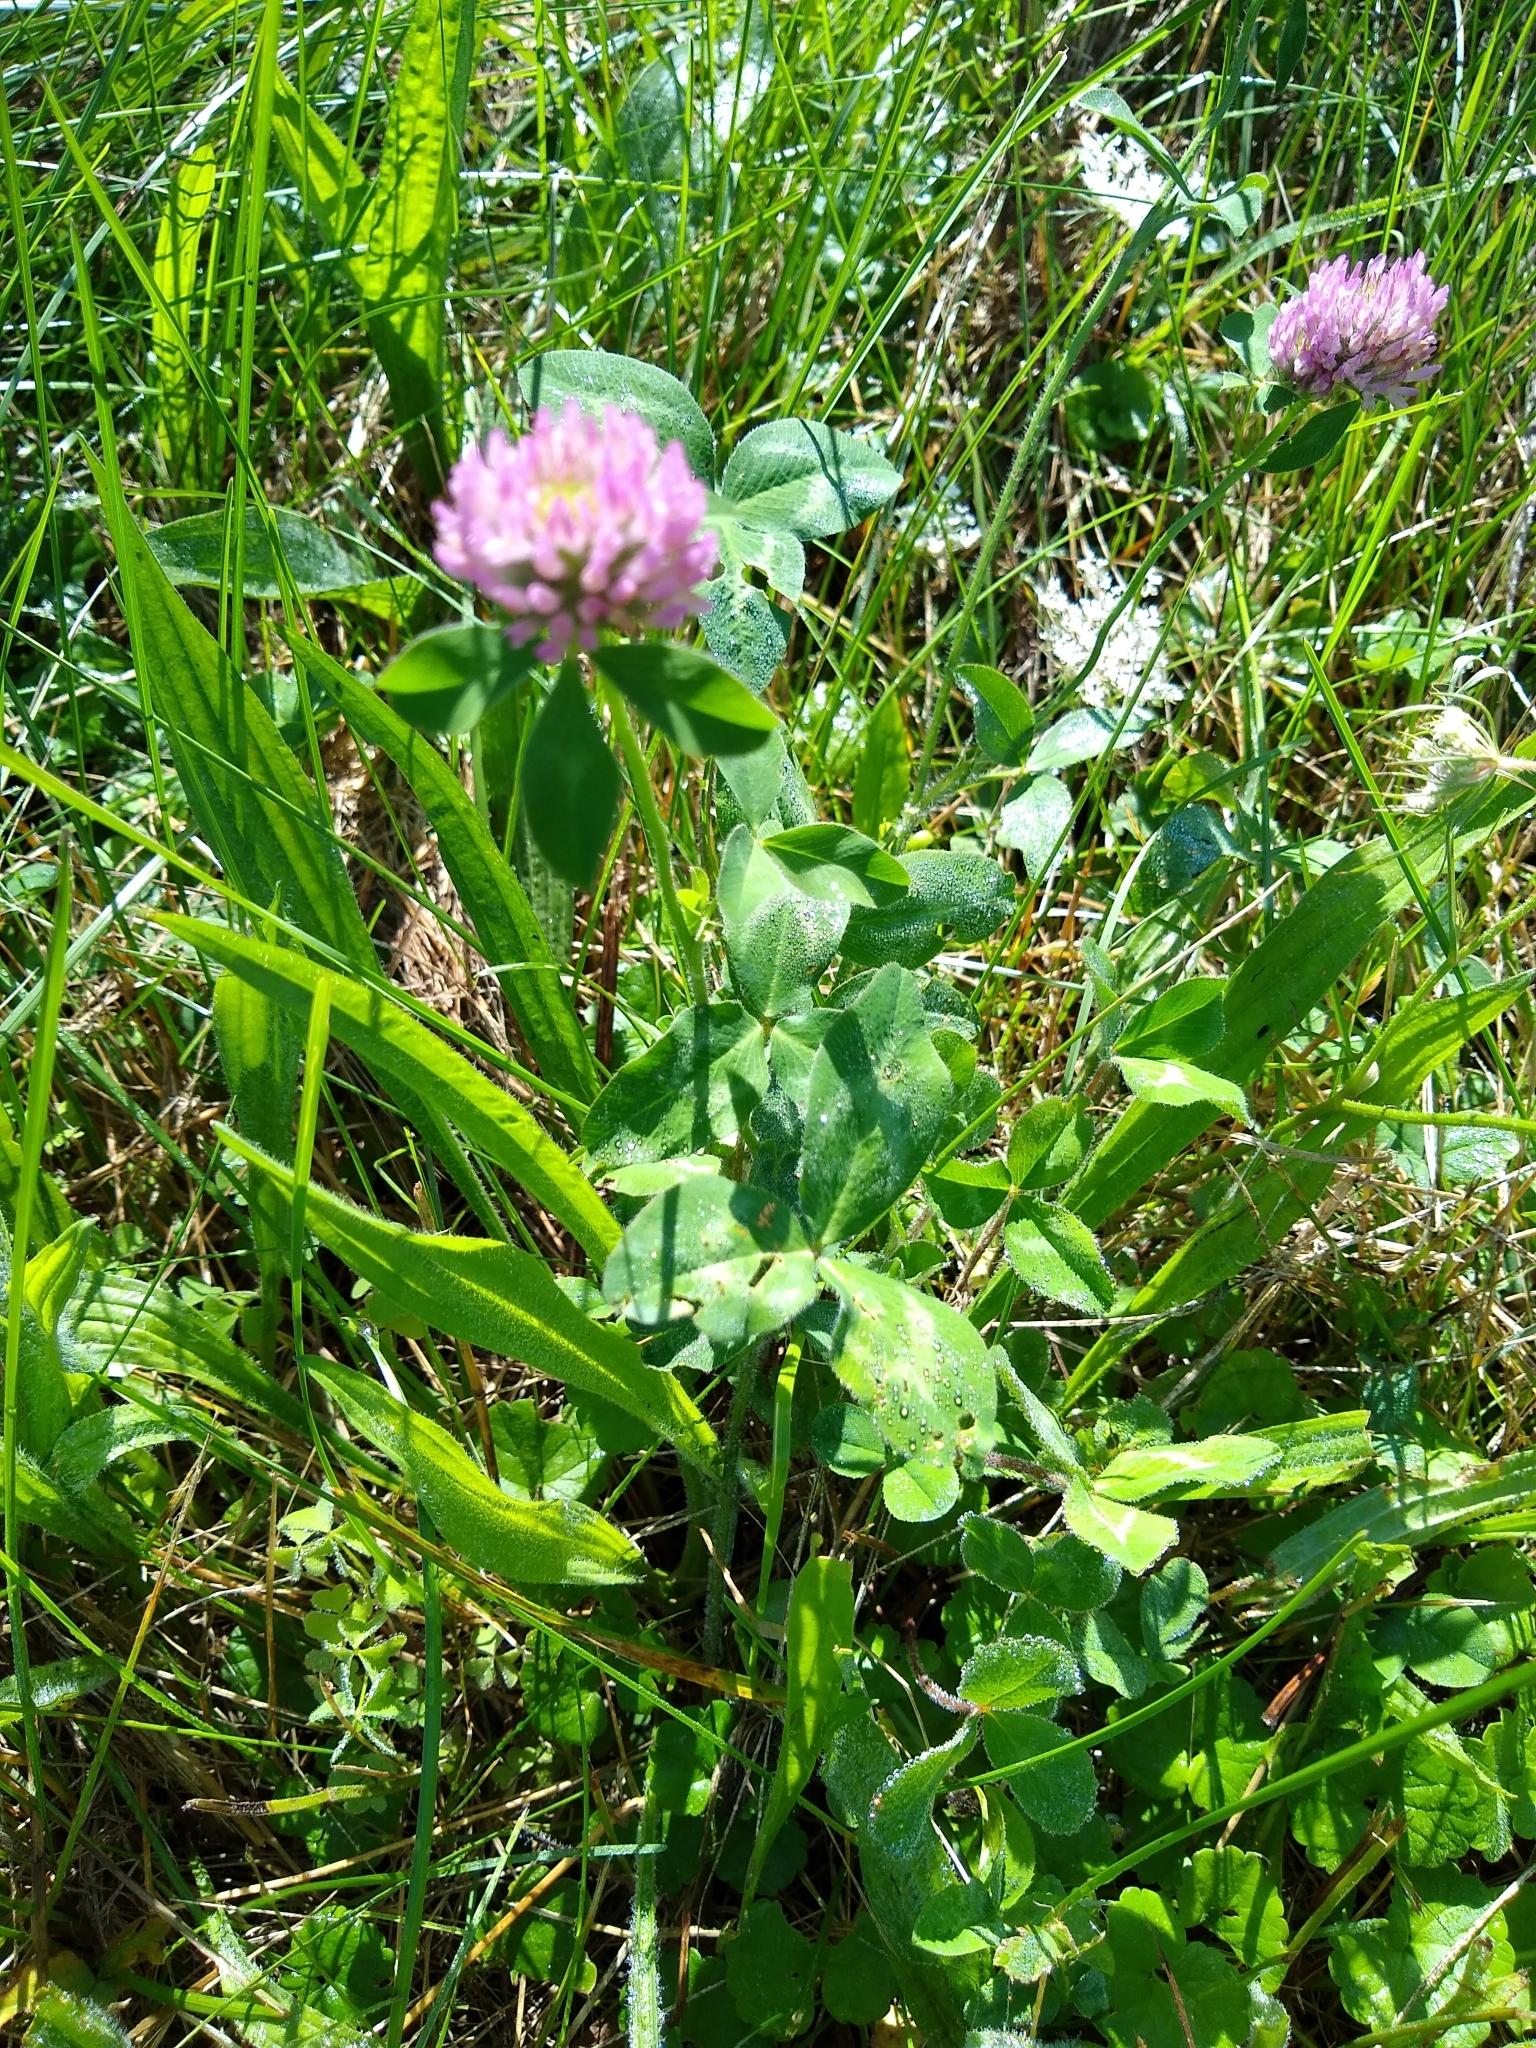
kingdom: Plantae
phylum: Tracheophyta
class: Magnoliopsida
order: Fabales
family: Fabaceae
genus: Trifolium
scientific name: Trifolium pratense
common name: Red clover
